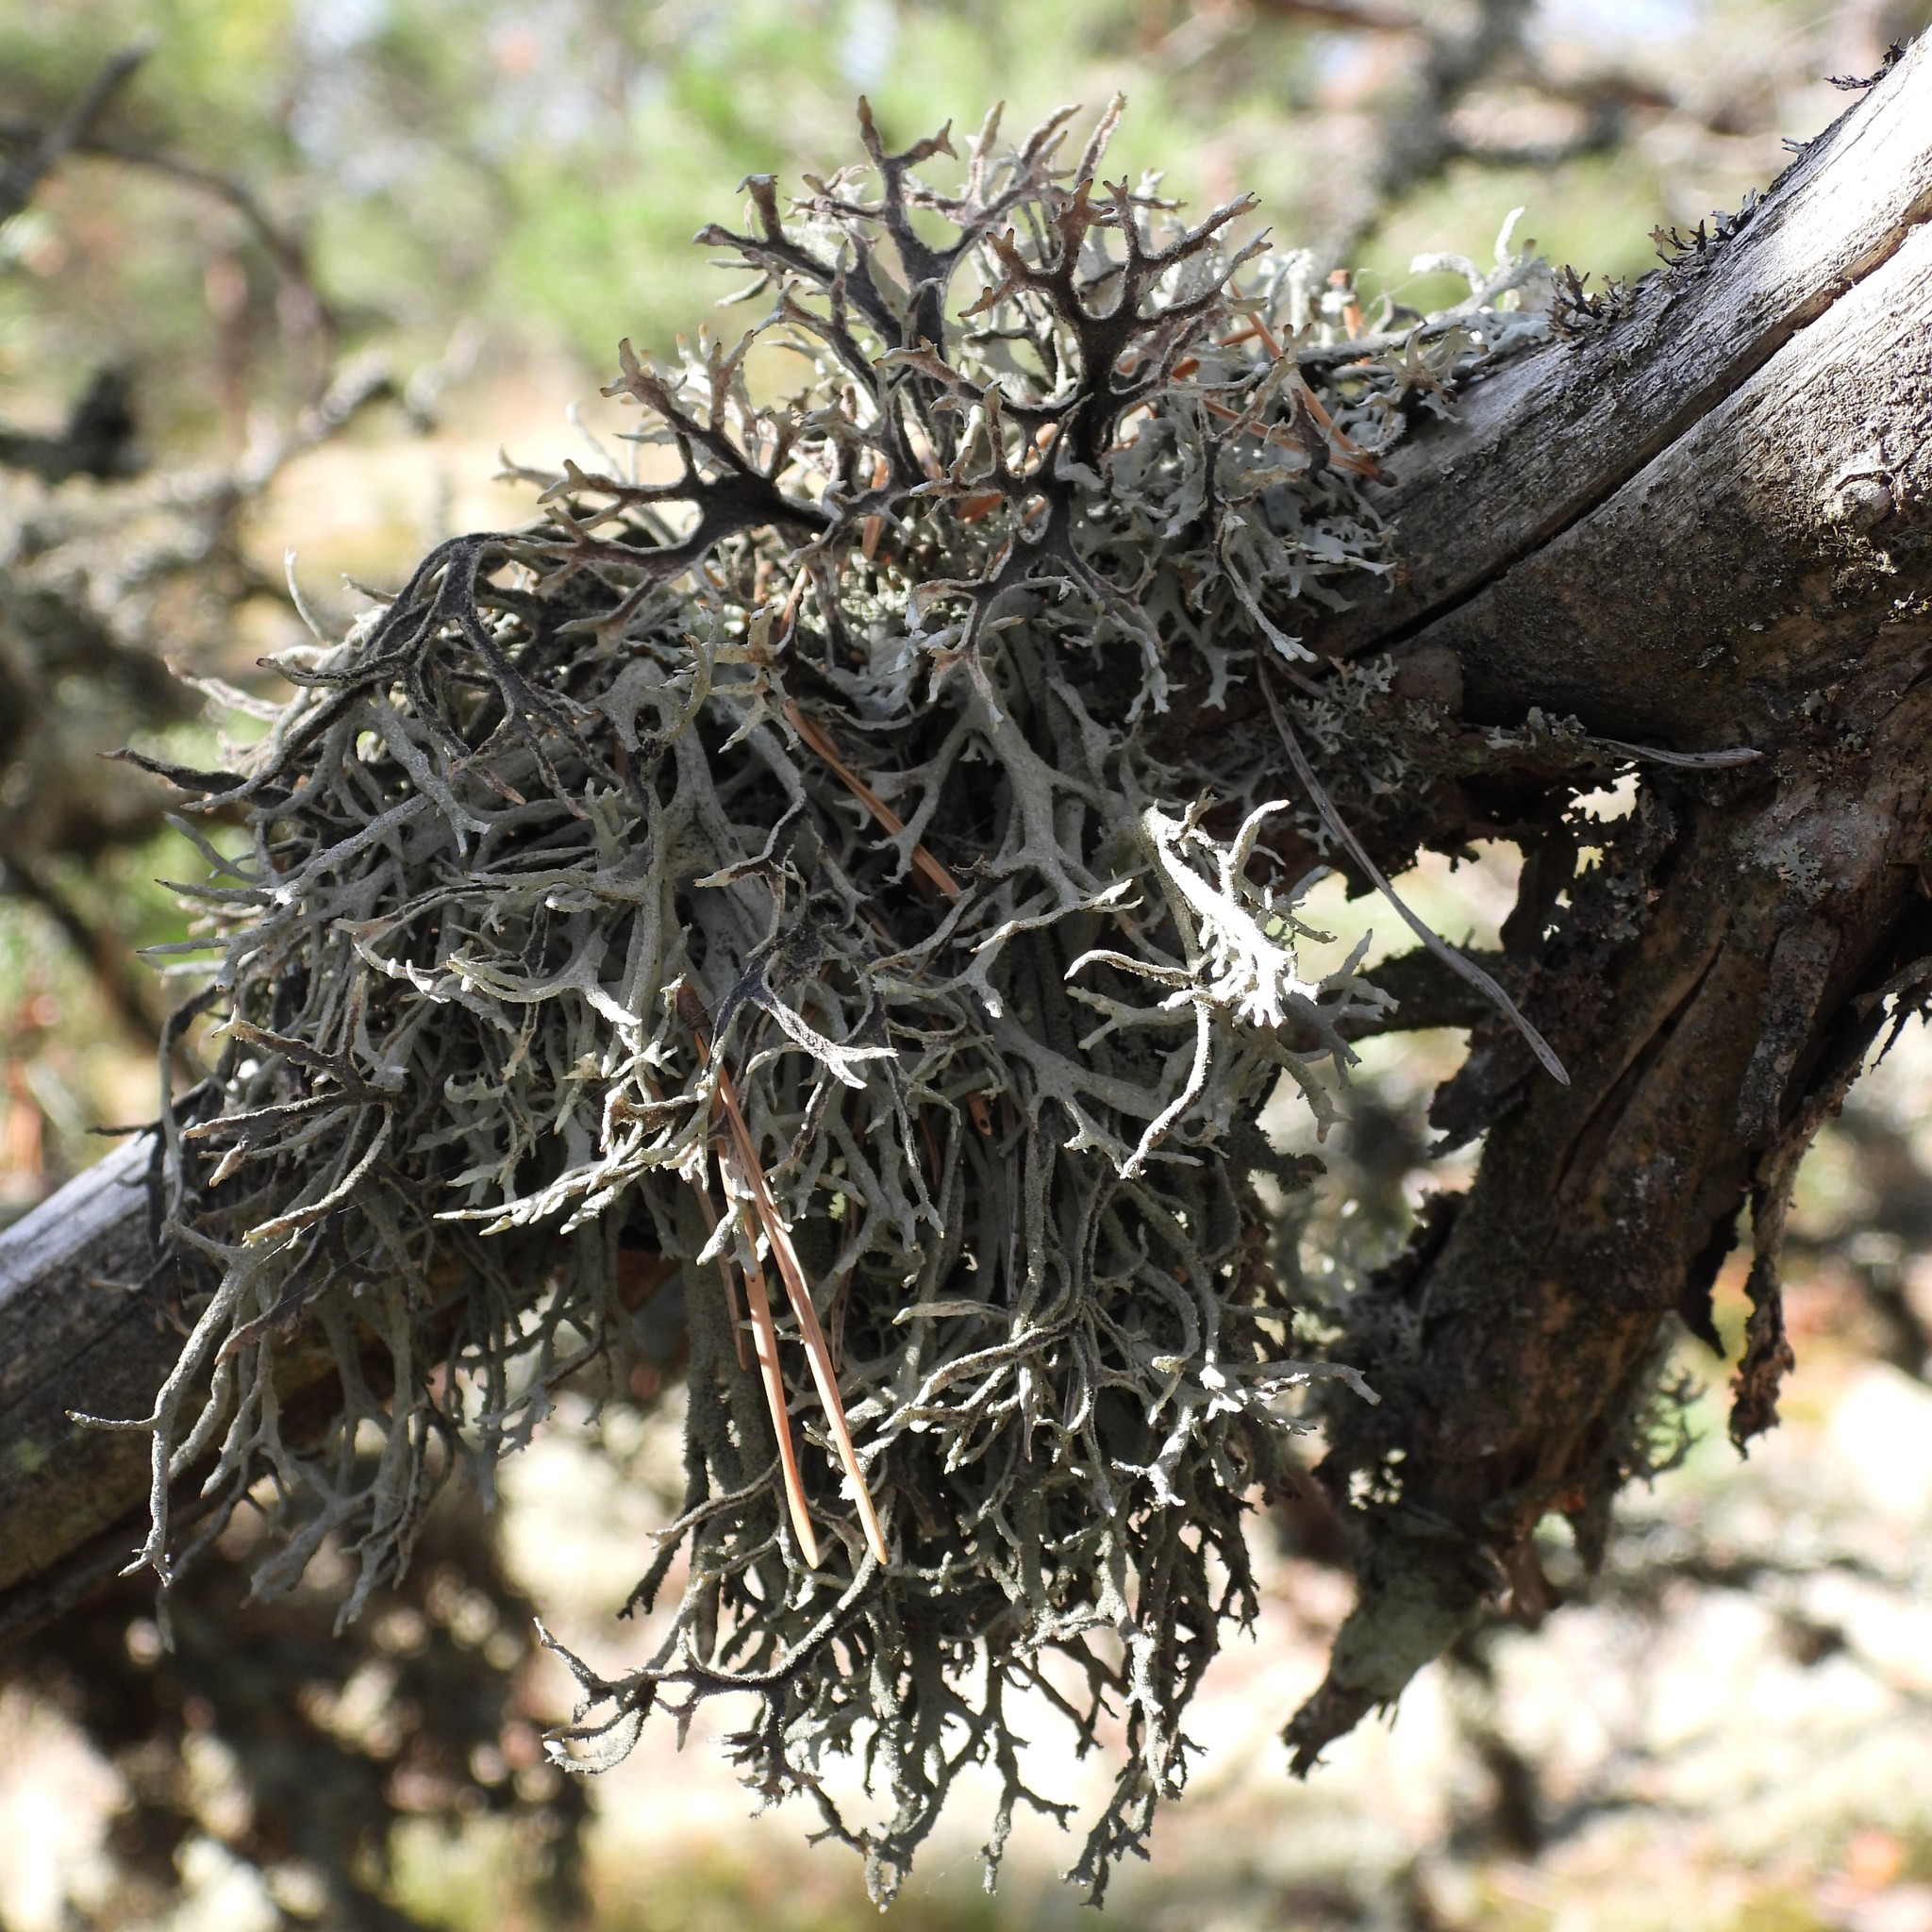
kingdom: Fungi
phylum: Ascomycota
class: Lecanoromycetes
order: Lecanorales
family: Parmeliaceae
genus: Pseudevernia
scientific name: Pseudevernia furfuracea
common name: Tree moss
